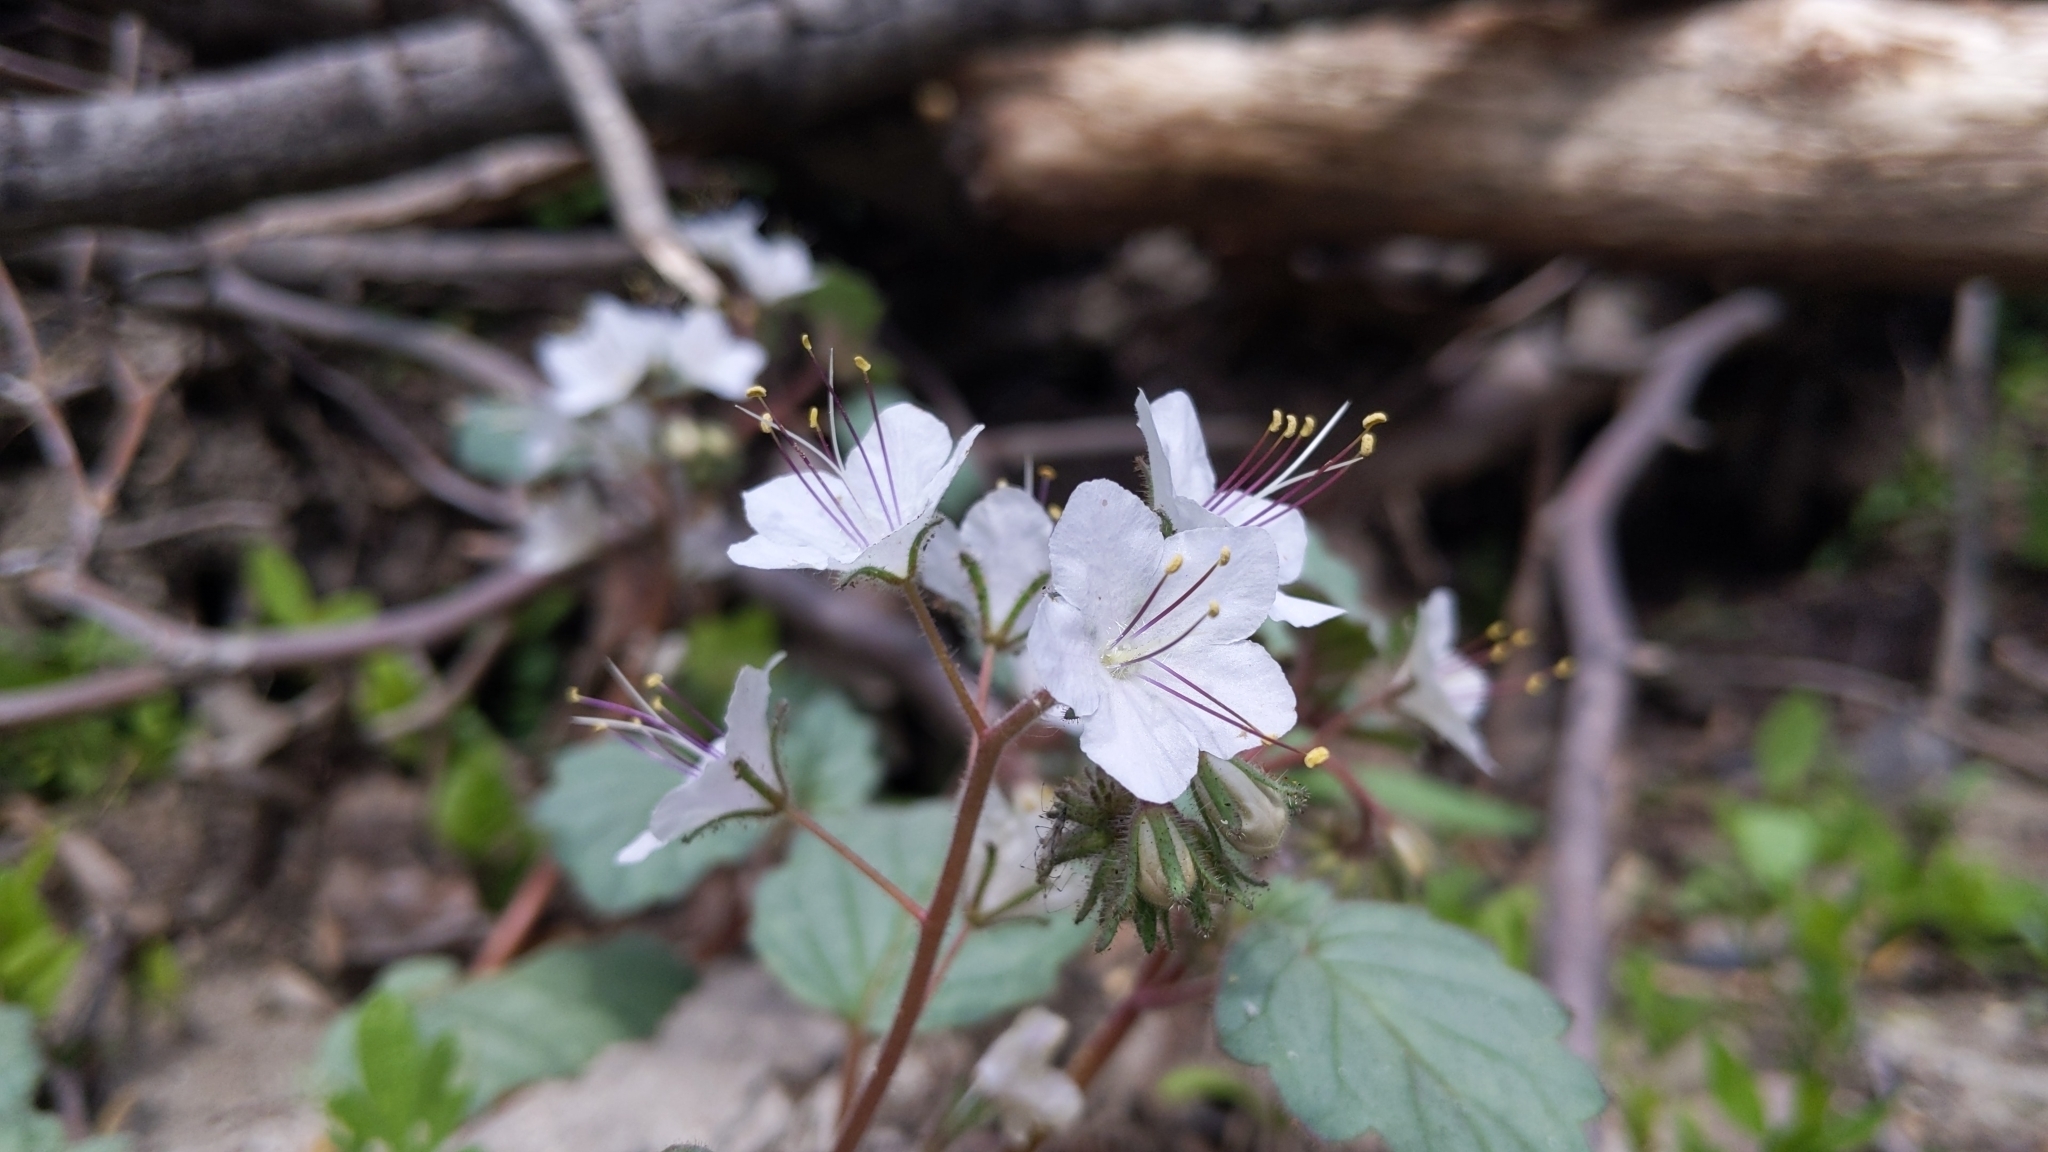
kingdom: Plantae
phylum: Tracheophyta
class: Magnoliopsida
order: Boraginales
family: Hydrophyllaceae
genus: Phacelia
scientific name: Phacelia longipes
